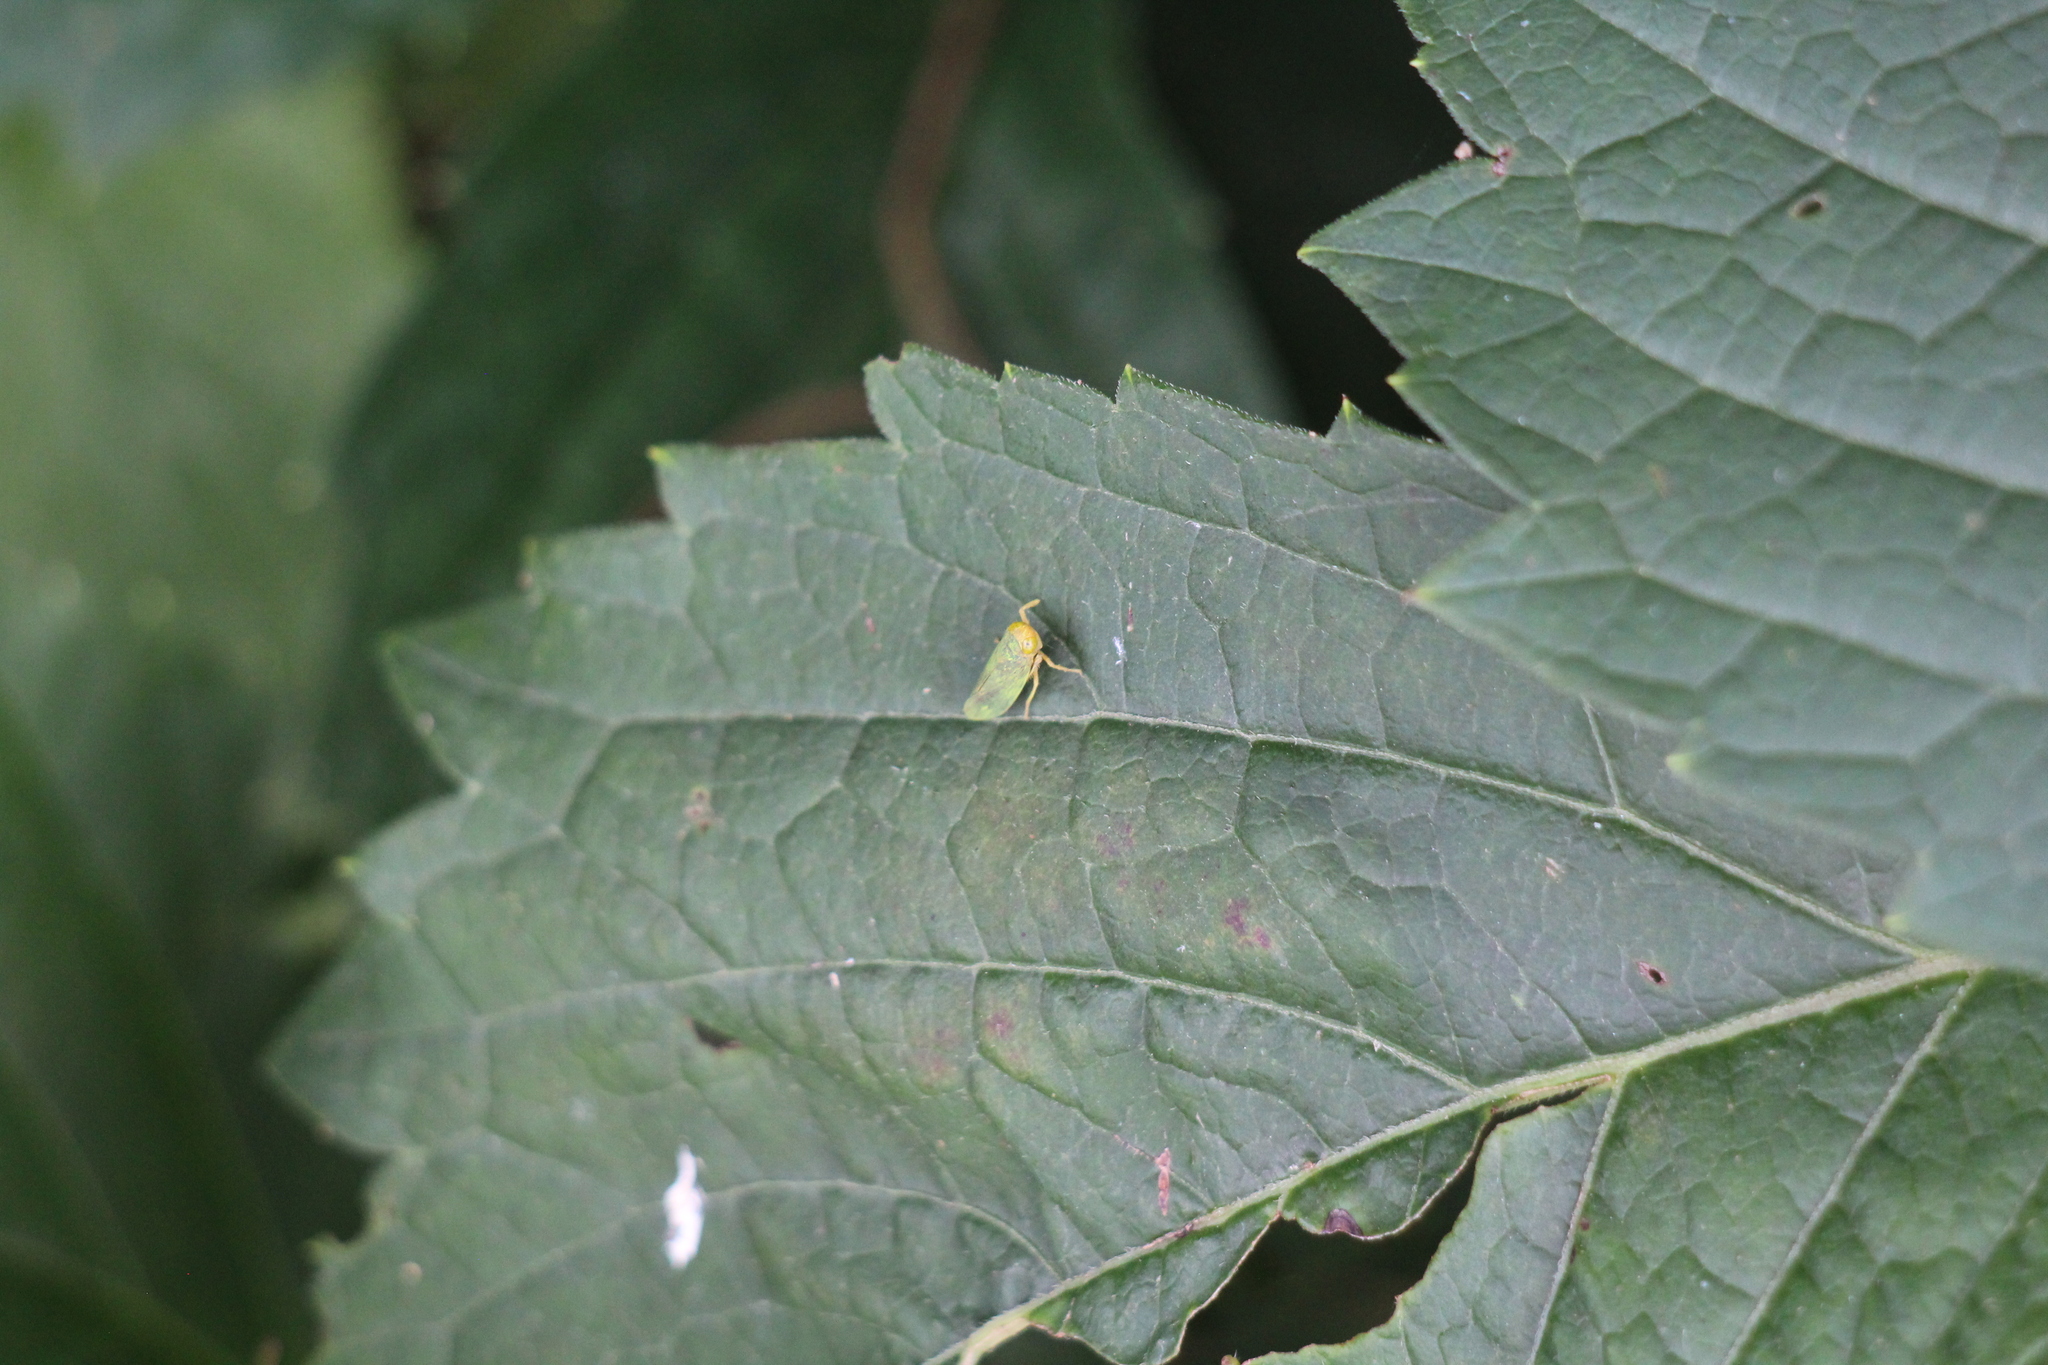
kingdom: Animalia
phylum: Arthropoda
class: Insecta
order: Hemiptera
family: Cicadellidae
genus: Jikradia
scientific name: Jikradia olitoria
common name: Coppery leafhopper
